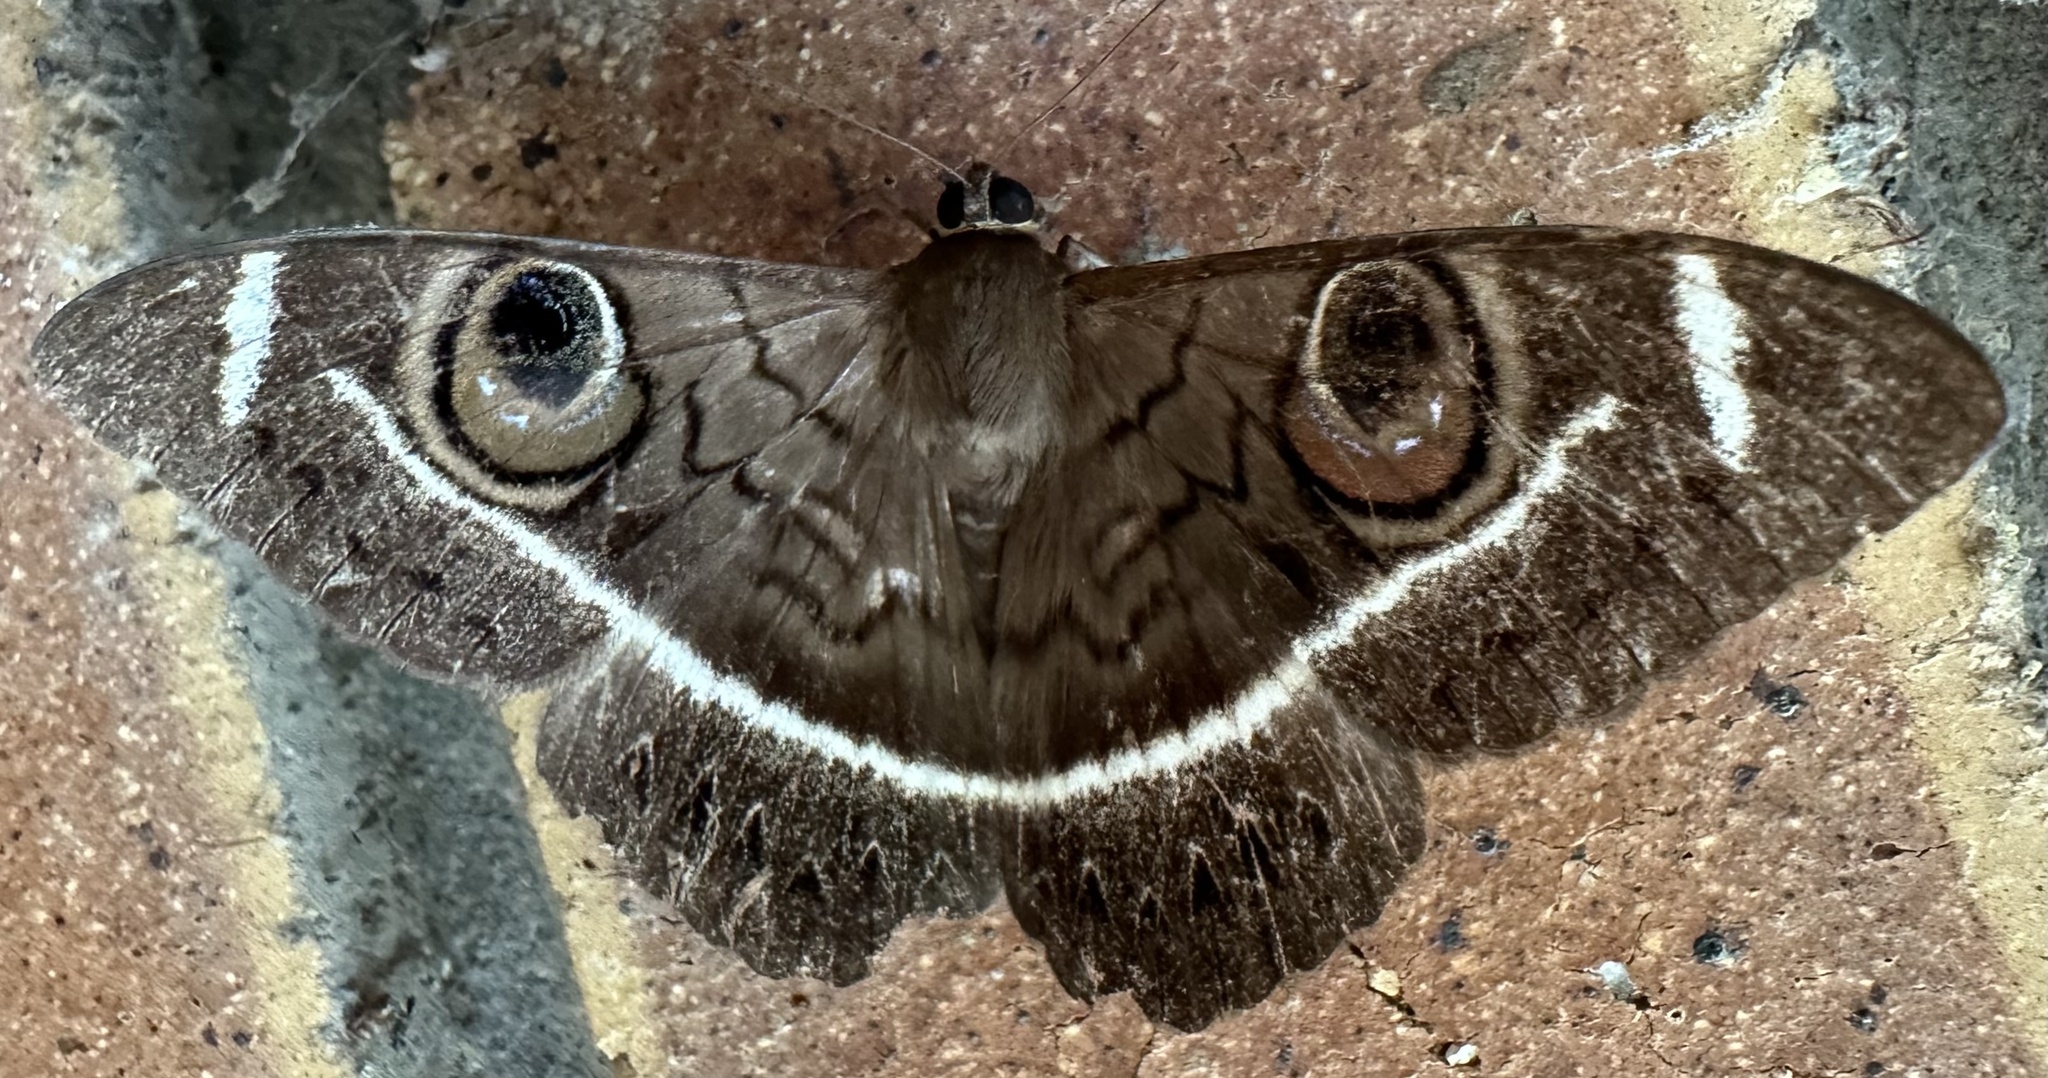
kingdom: Animalia
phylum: Arthropoda
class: Insecta
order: Lepidoptera
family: Erebidae
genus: Cyligramma
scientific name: Cyligramma latona
